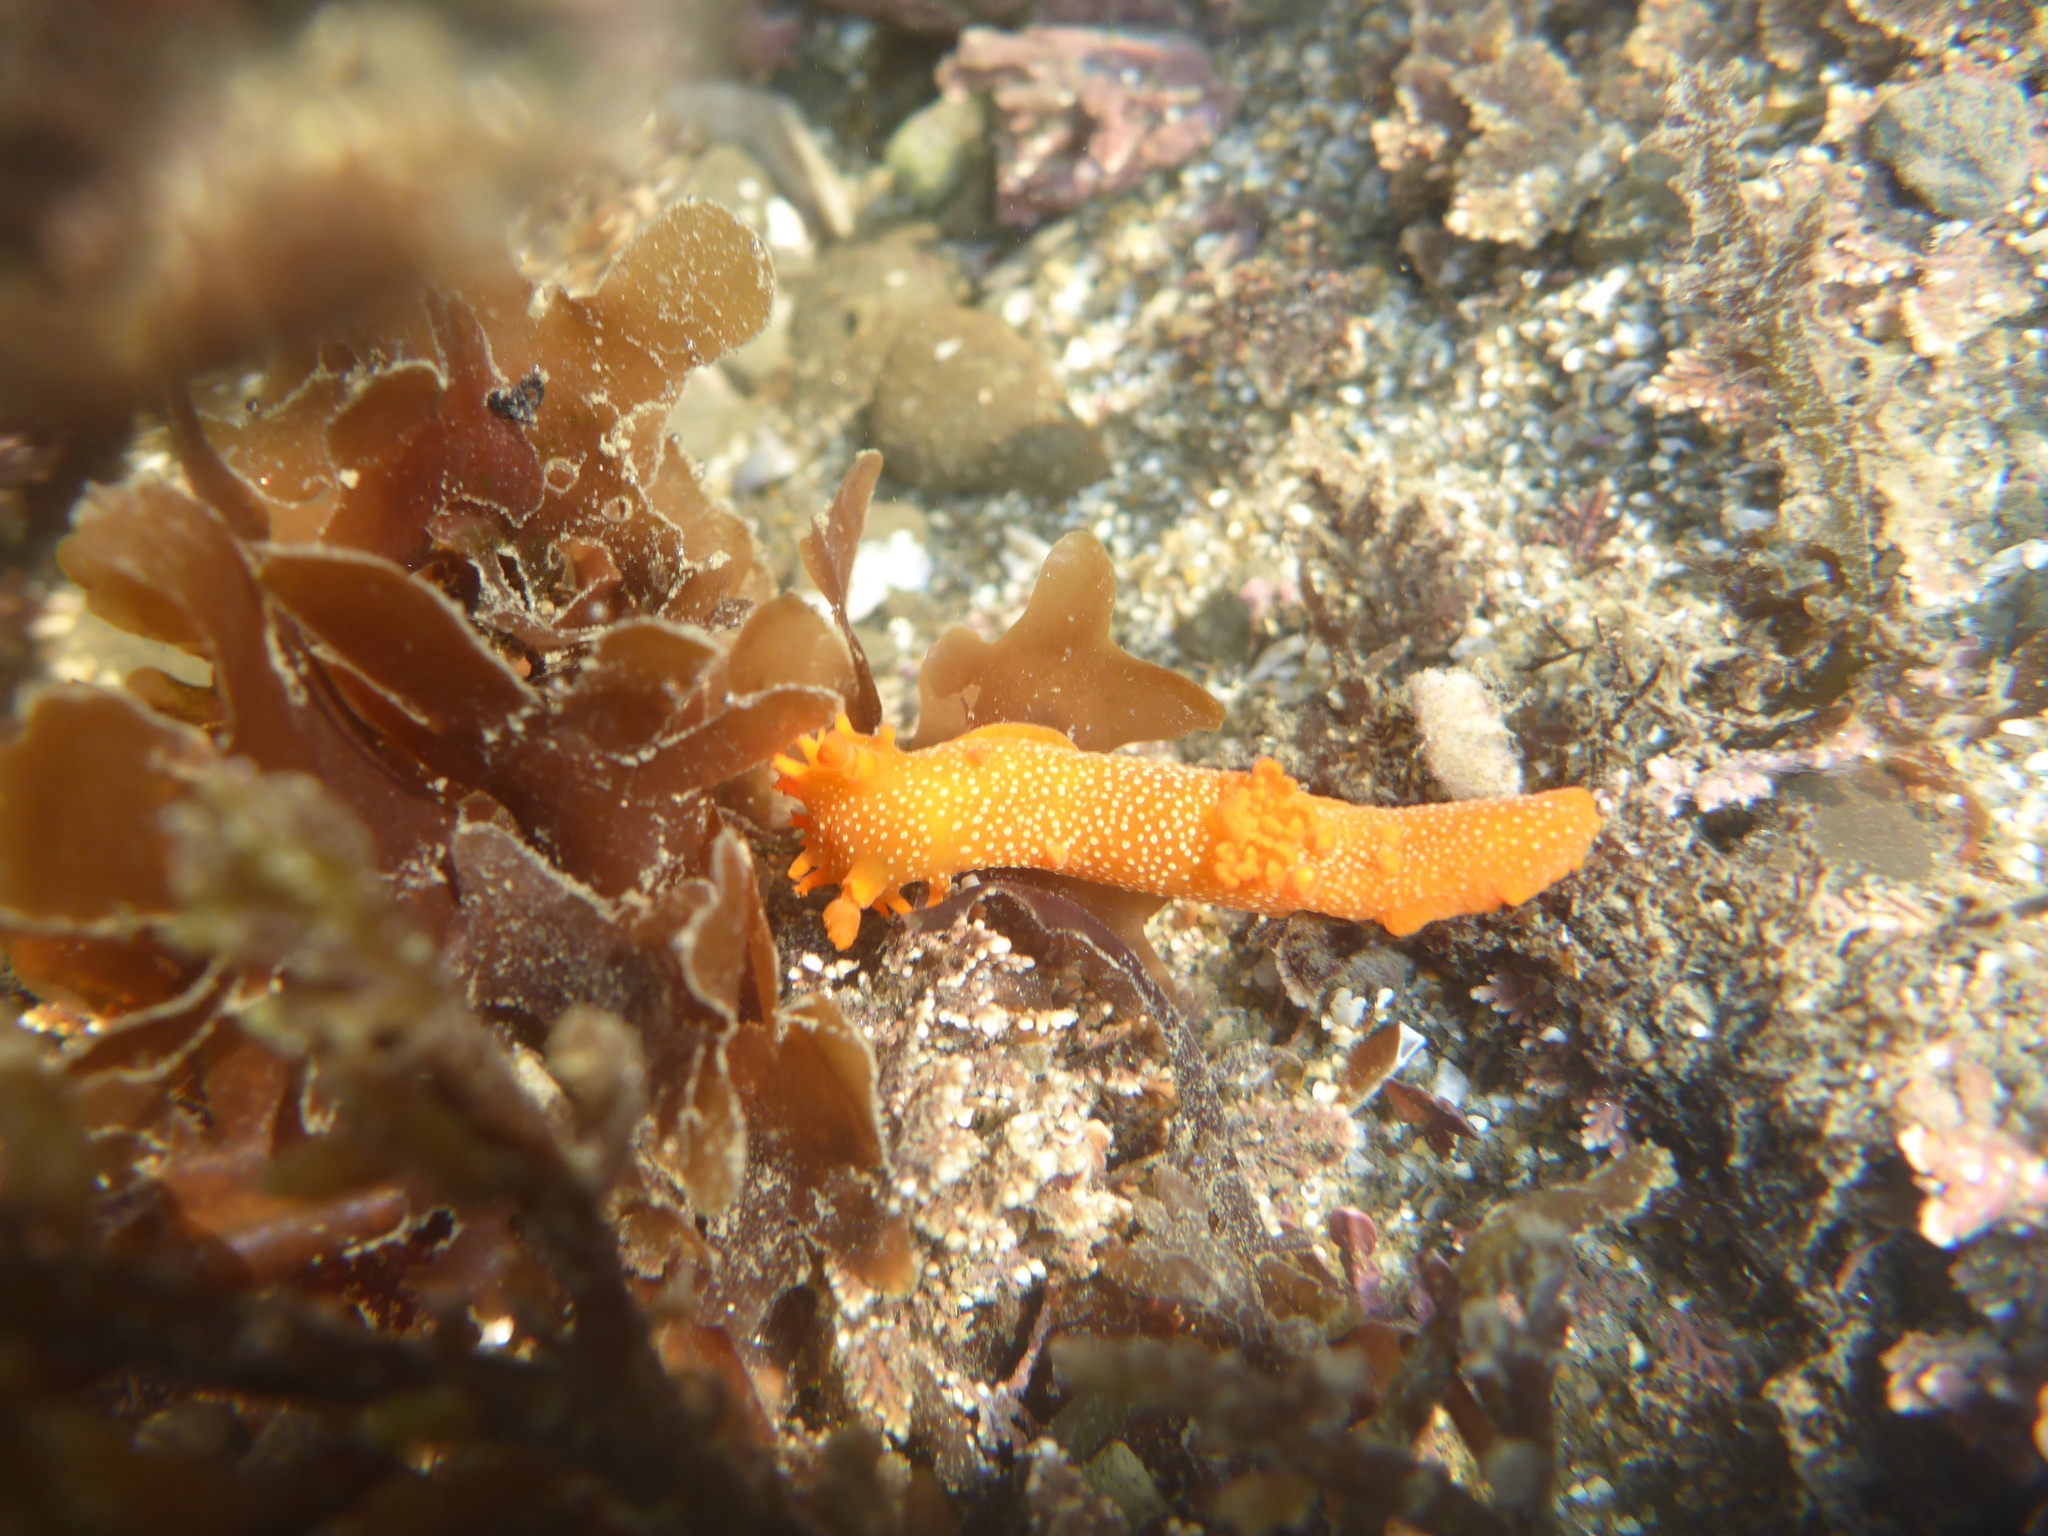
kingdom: Animalia
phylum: Mollusca
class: Gastropoda
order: Nudibranchia
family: Polyceridae
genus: Triopha
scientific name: Triopha maculata
